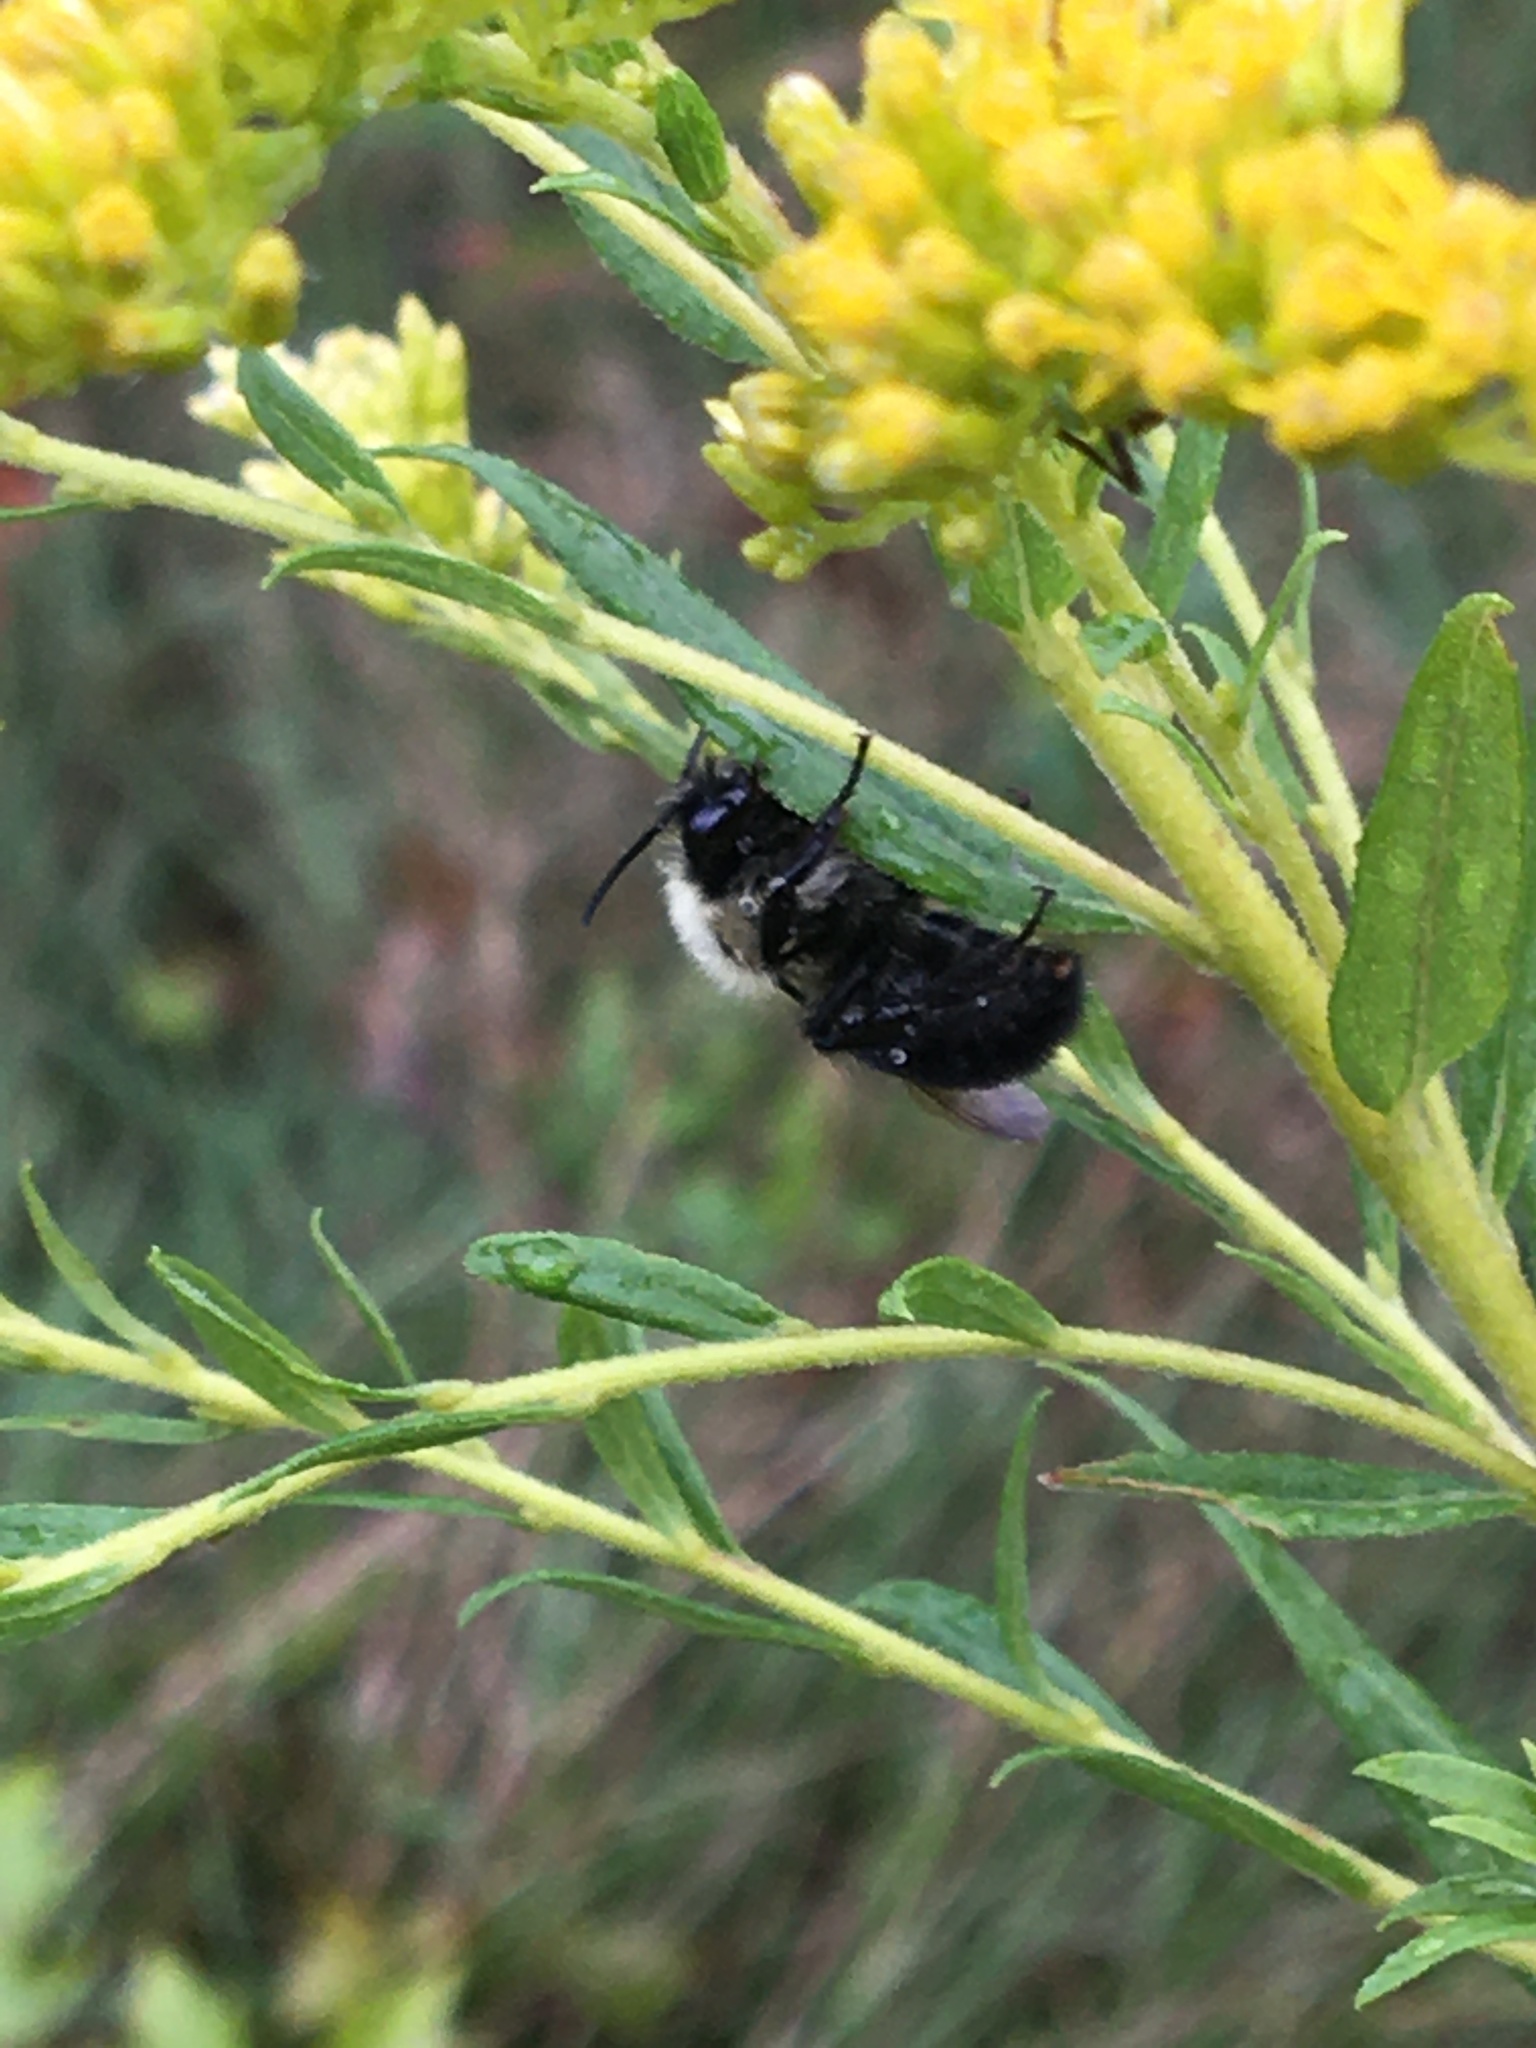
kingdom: Animalia
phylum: Arthropoda
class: Insecta
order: Hymenoptera
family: Apidae
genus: Bombus
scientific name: Bombus impatiens
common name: Common eastern bumble bee
